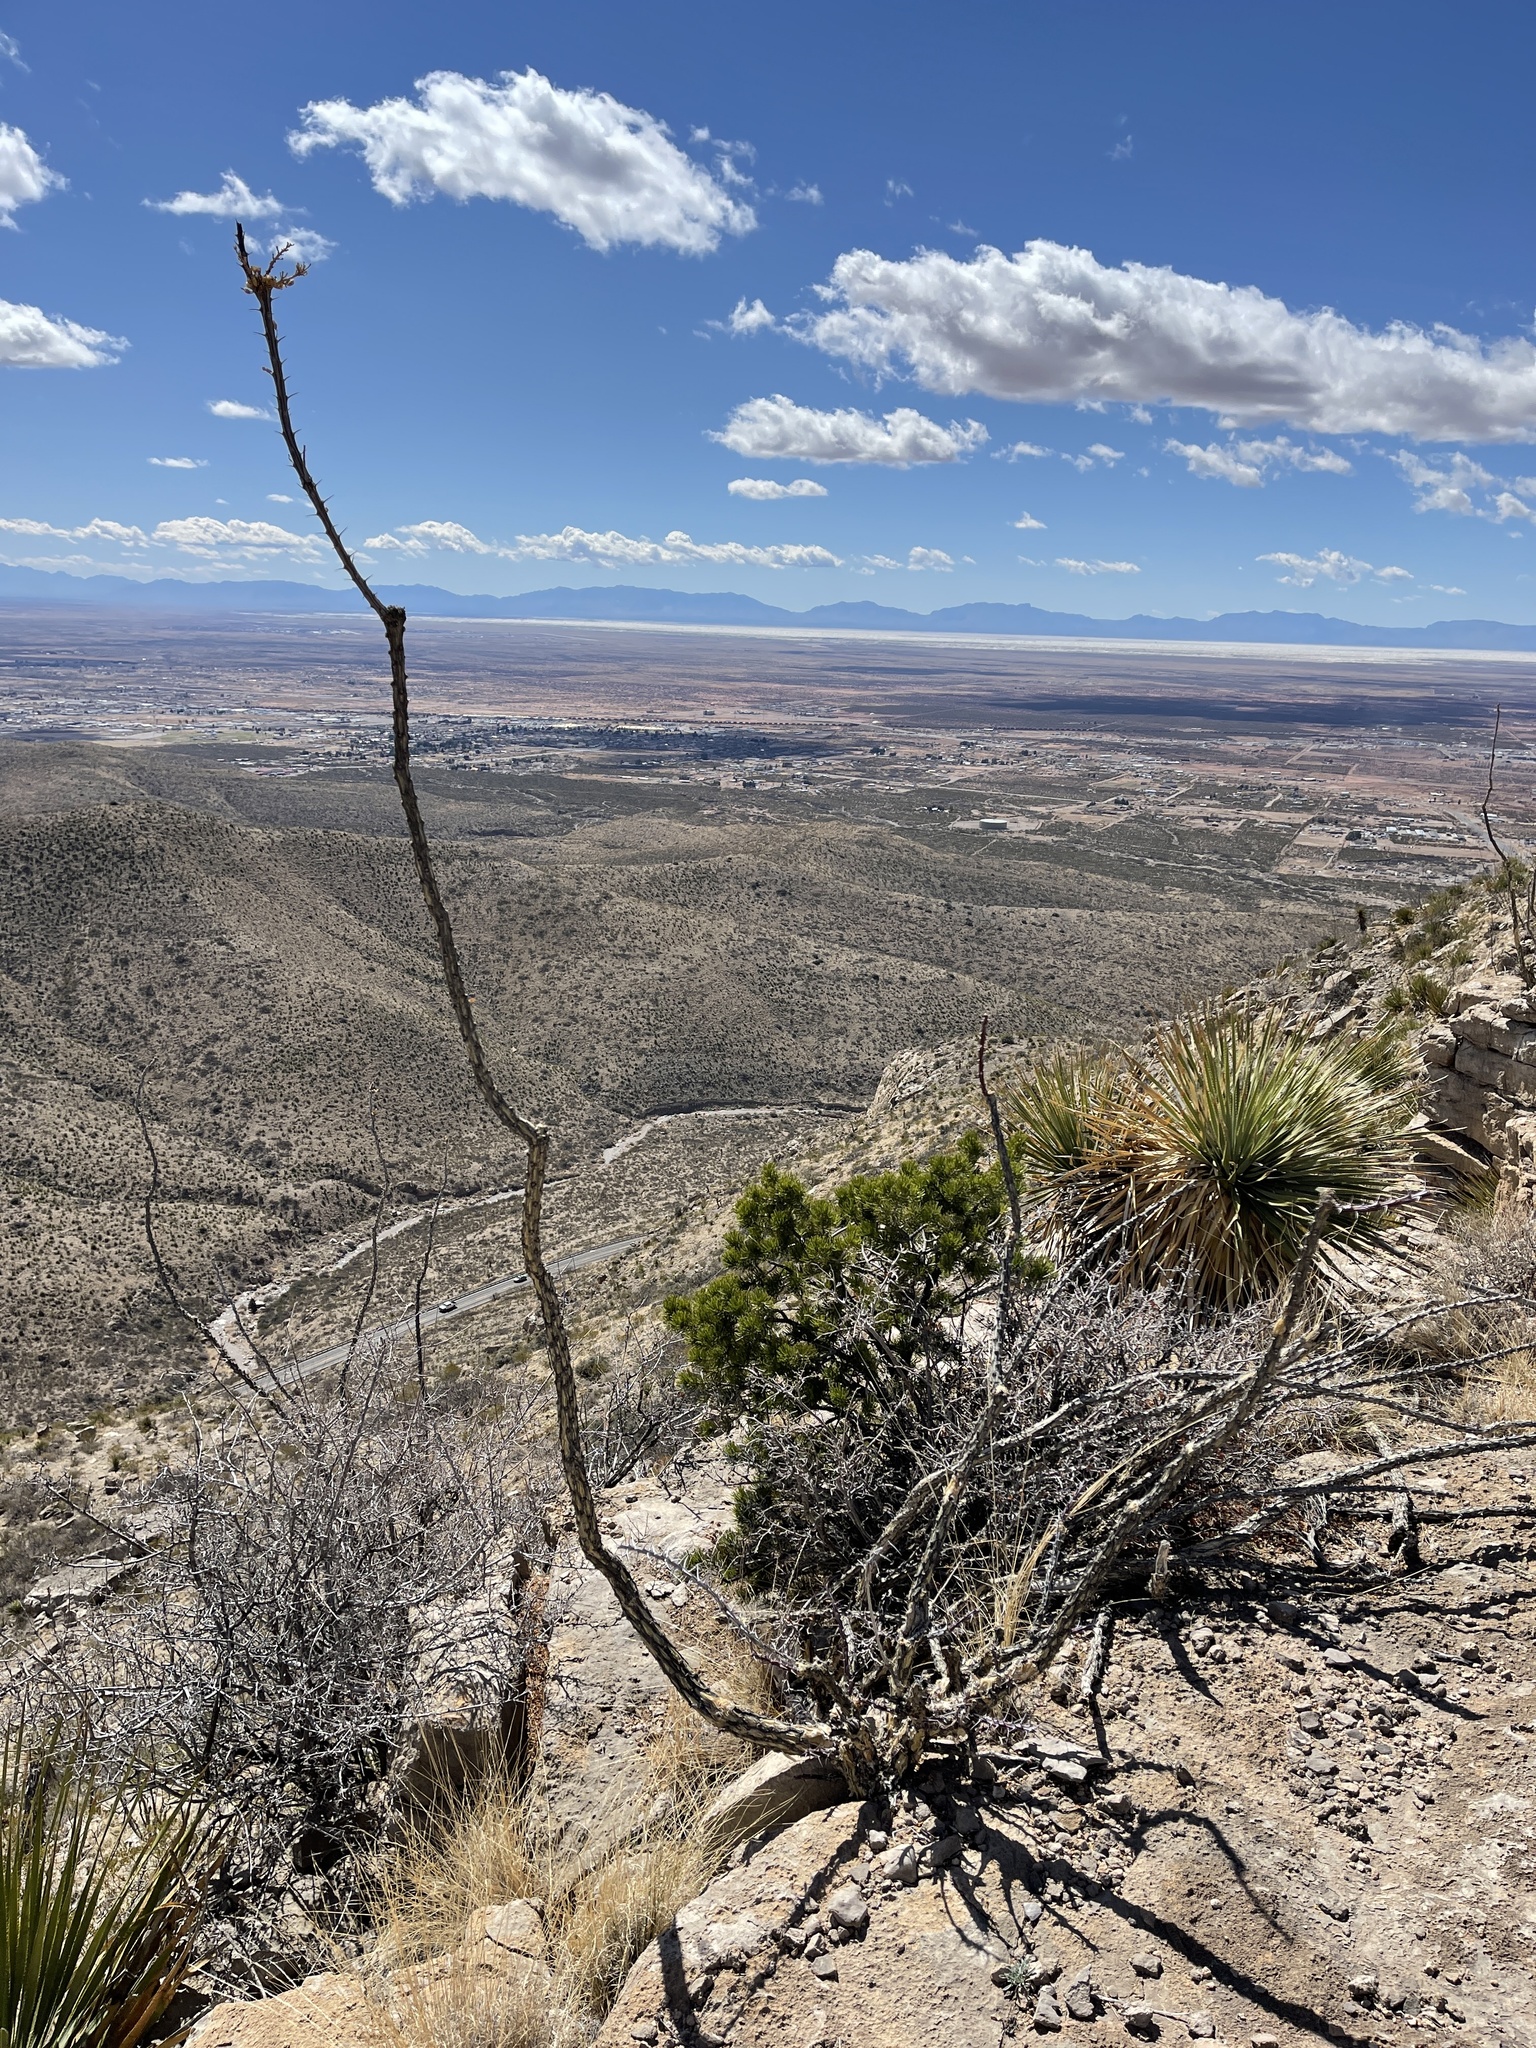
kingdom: Plantae
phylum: Tracheophyta
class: Magnoliopsida
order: Ericales
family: Fouquieriaceae
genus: Fouquieria
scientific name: Fouquieria splendens
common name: Vine-cactus
